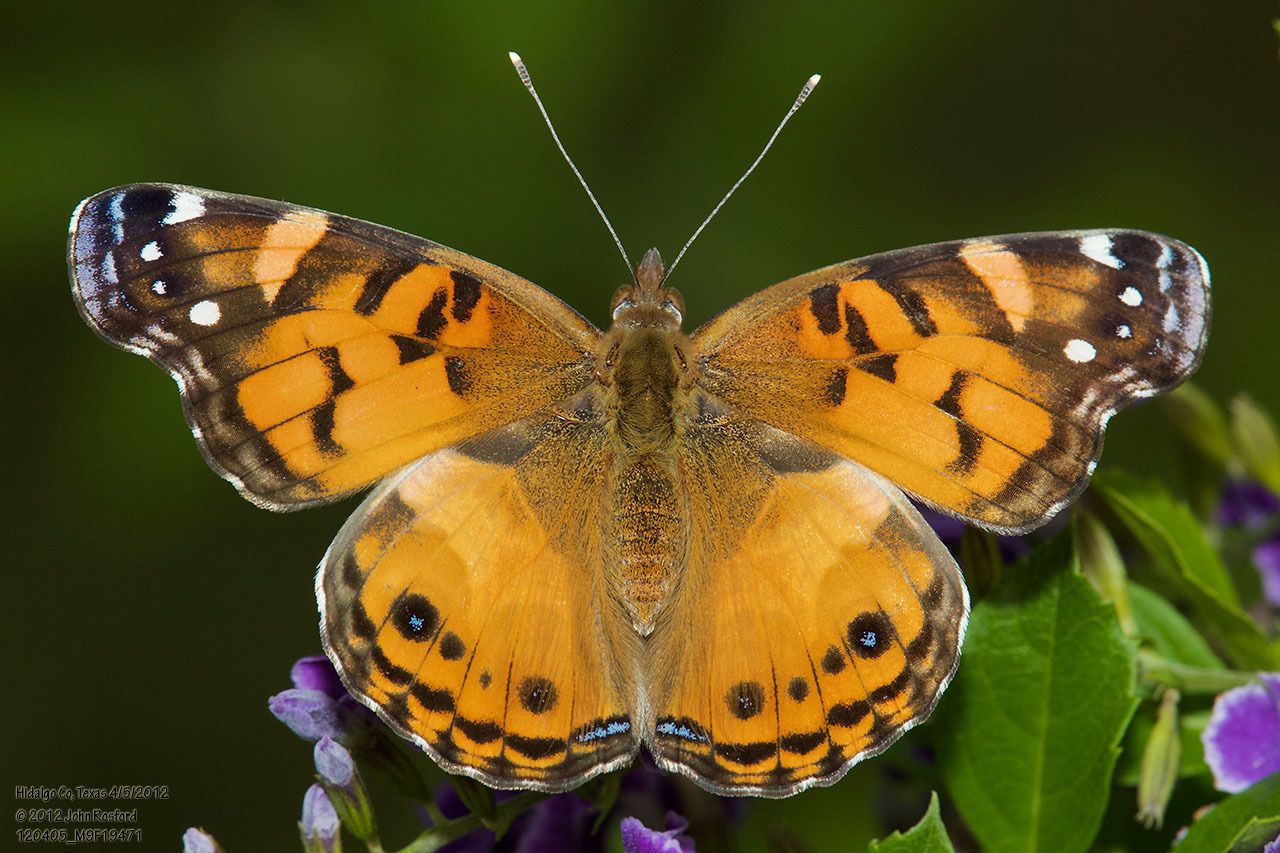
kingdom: Animalia
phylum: Arthropoda
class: Insecta
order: Lepidoptera
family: Nymphalidae
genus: Vanessa
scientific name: Vanessa virginiensis
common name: American lady
